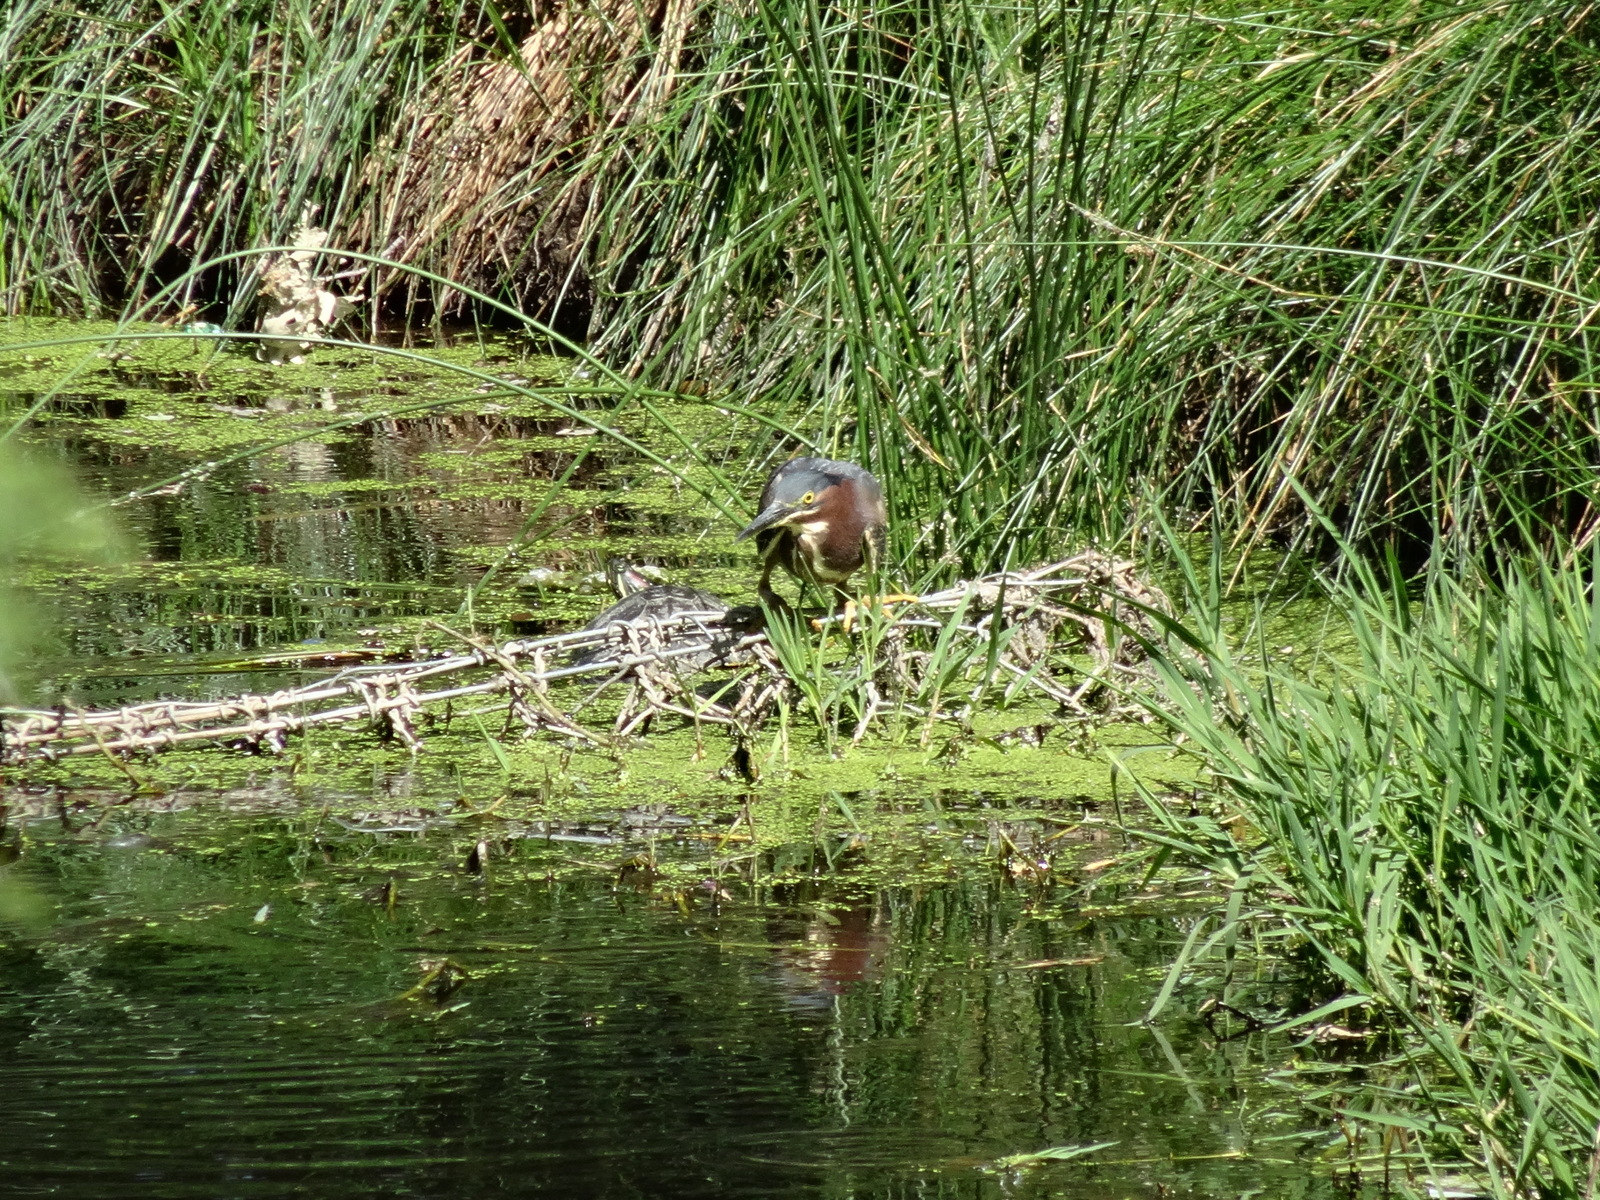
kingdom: Animalia
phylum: Chordata
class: Aves
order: Pelecaniformes
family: Ardeidae
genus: Butorides
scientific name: Butorides virescens
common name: Green heron
